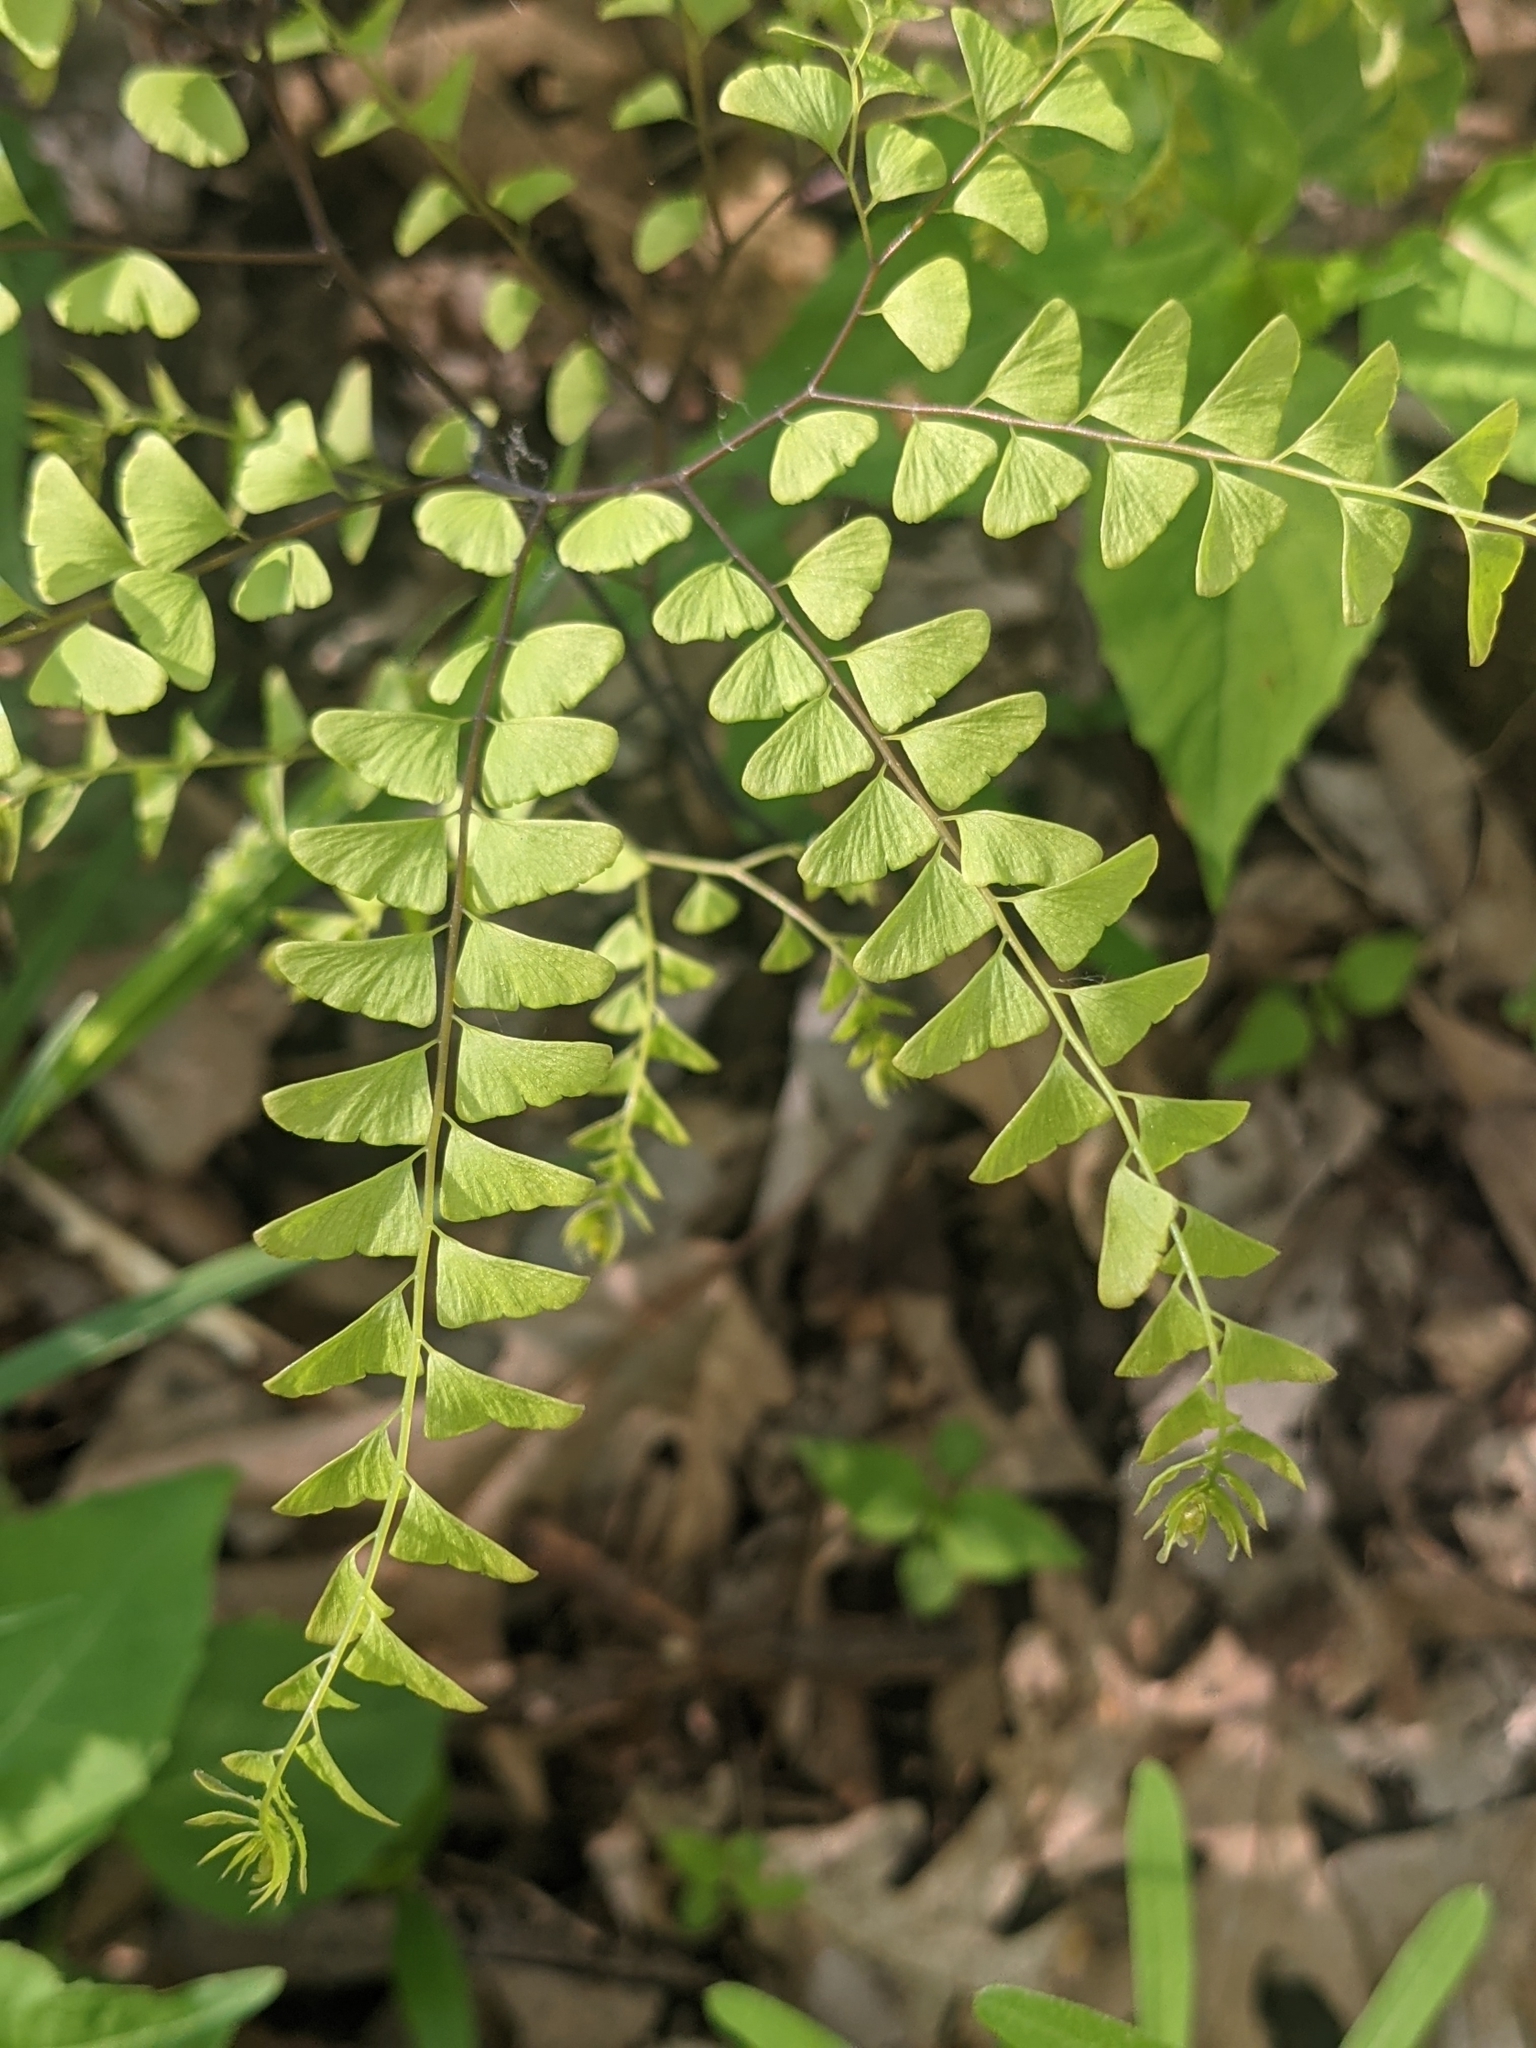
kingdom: Plantae
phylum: Tracheophyta
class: Polypodiopsida
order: Polypodiales
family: Pteridaceae
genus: Adiantum
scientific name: Adiantum pedatum
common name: Five-finger fern
